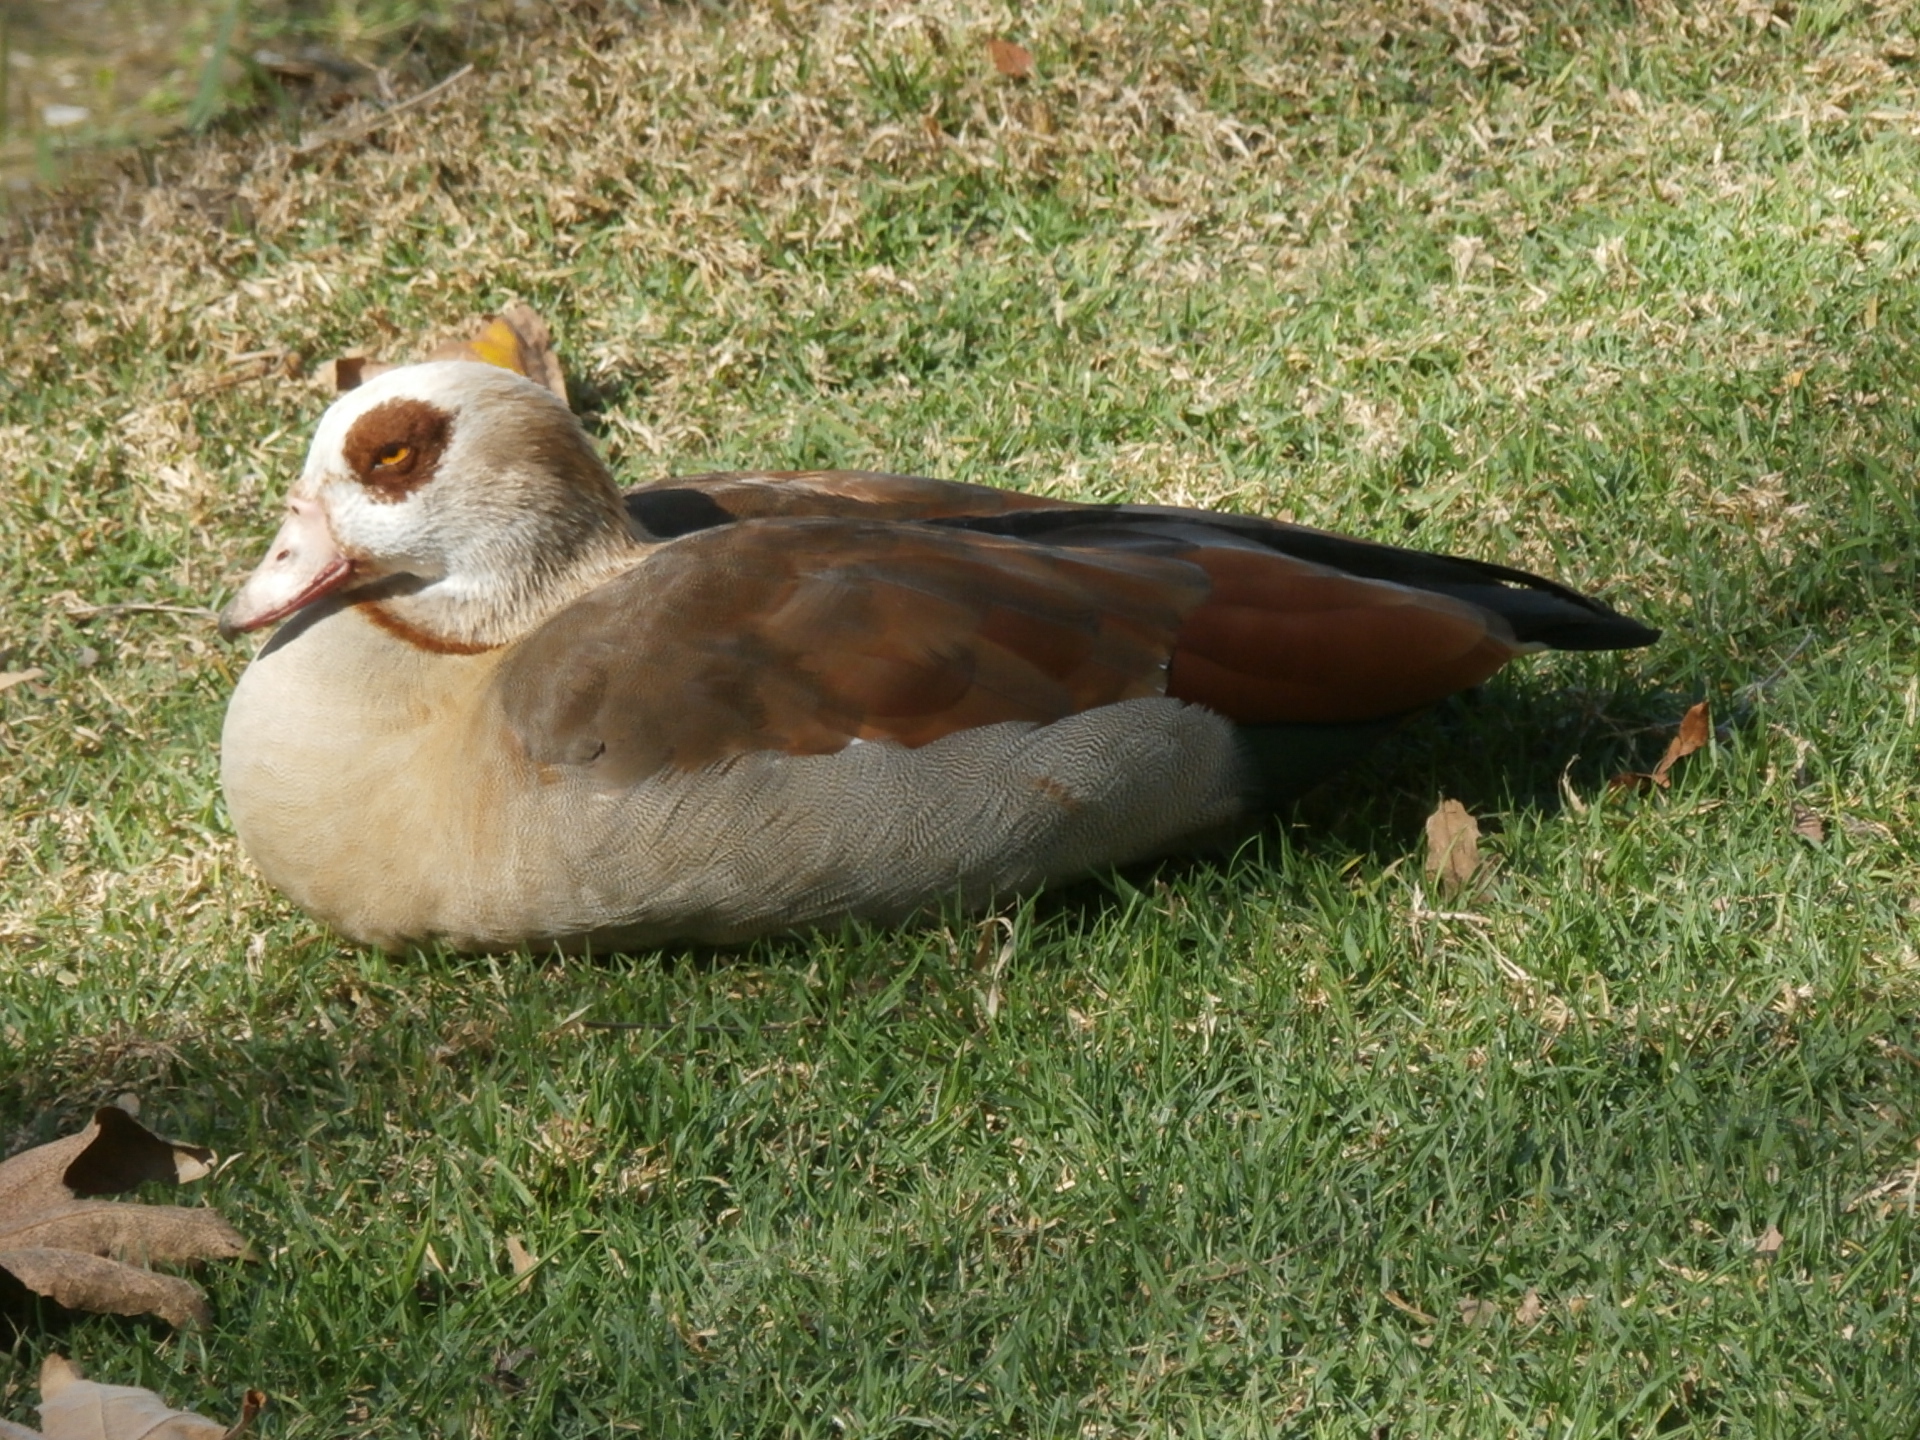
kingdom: Animalia
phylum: Chordata
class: Aves
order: Anseriformes
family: Anatidae
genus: Alopochen
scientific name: Alopochen aegyptiaca
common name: Egyptian goose
